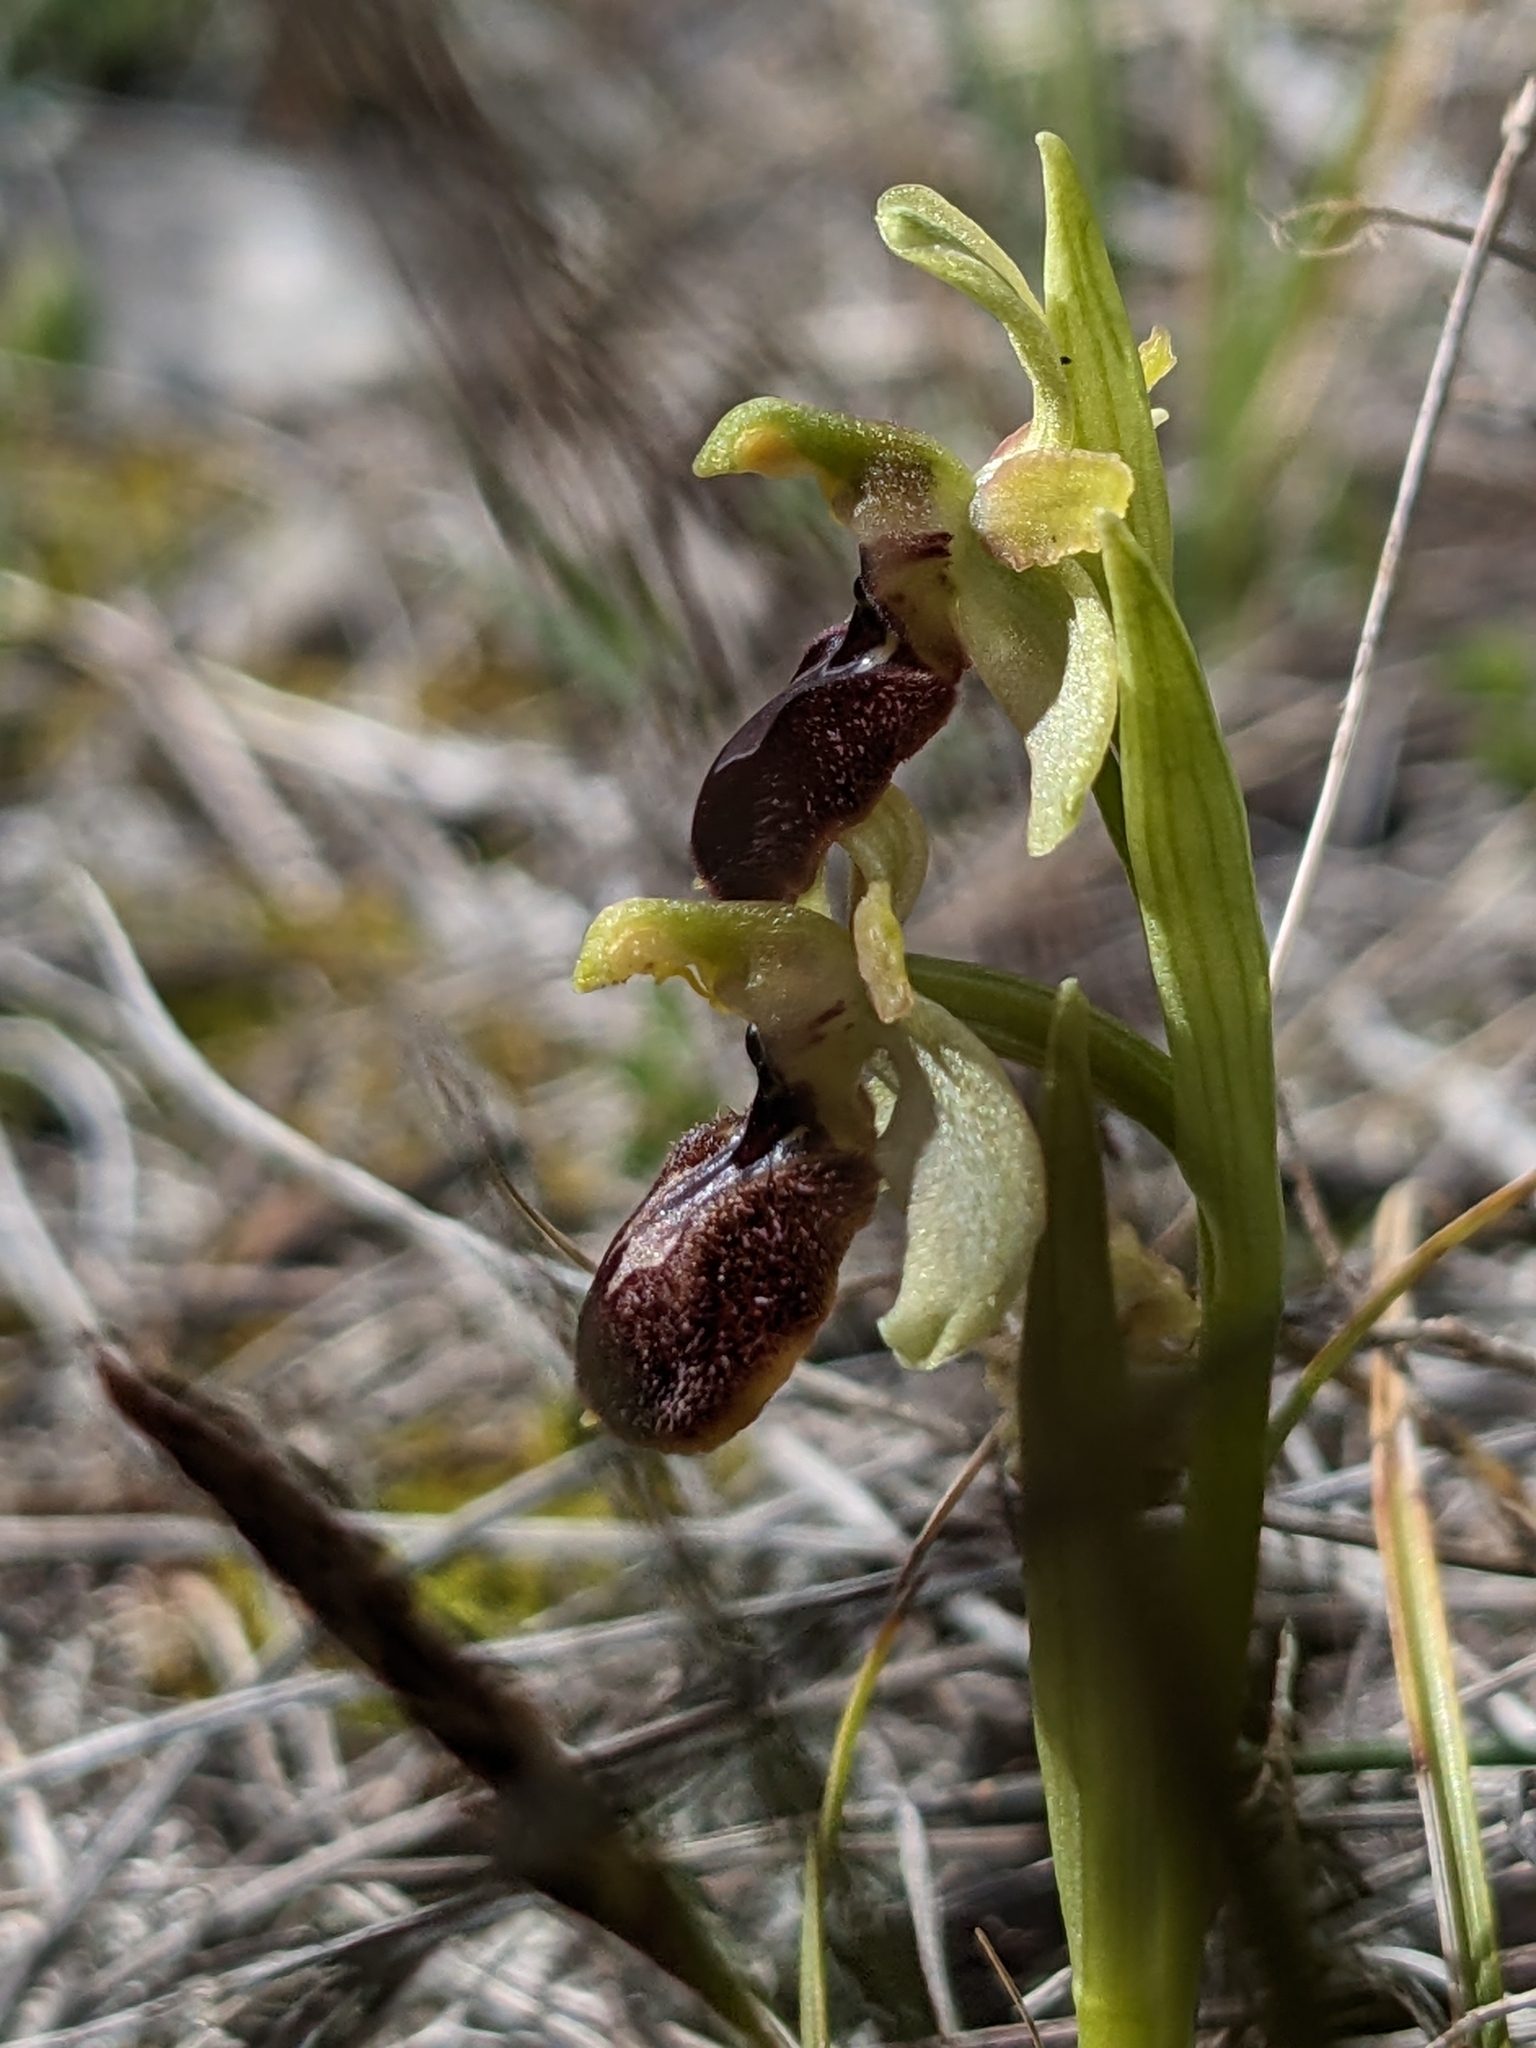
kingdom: Plantae
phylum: Tracheophyta
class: Liliopsida
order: Asparagales
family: Orchidaceae
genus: Ophrys
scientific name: Ophrys arachnitiformis
